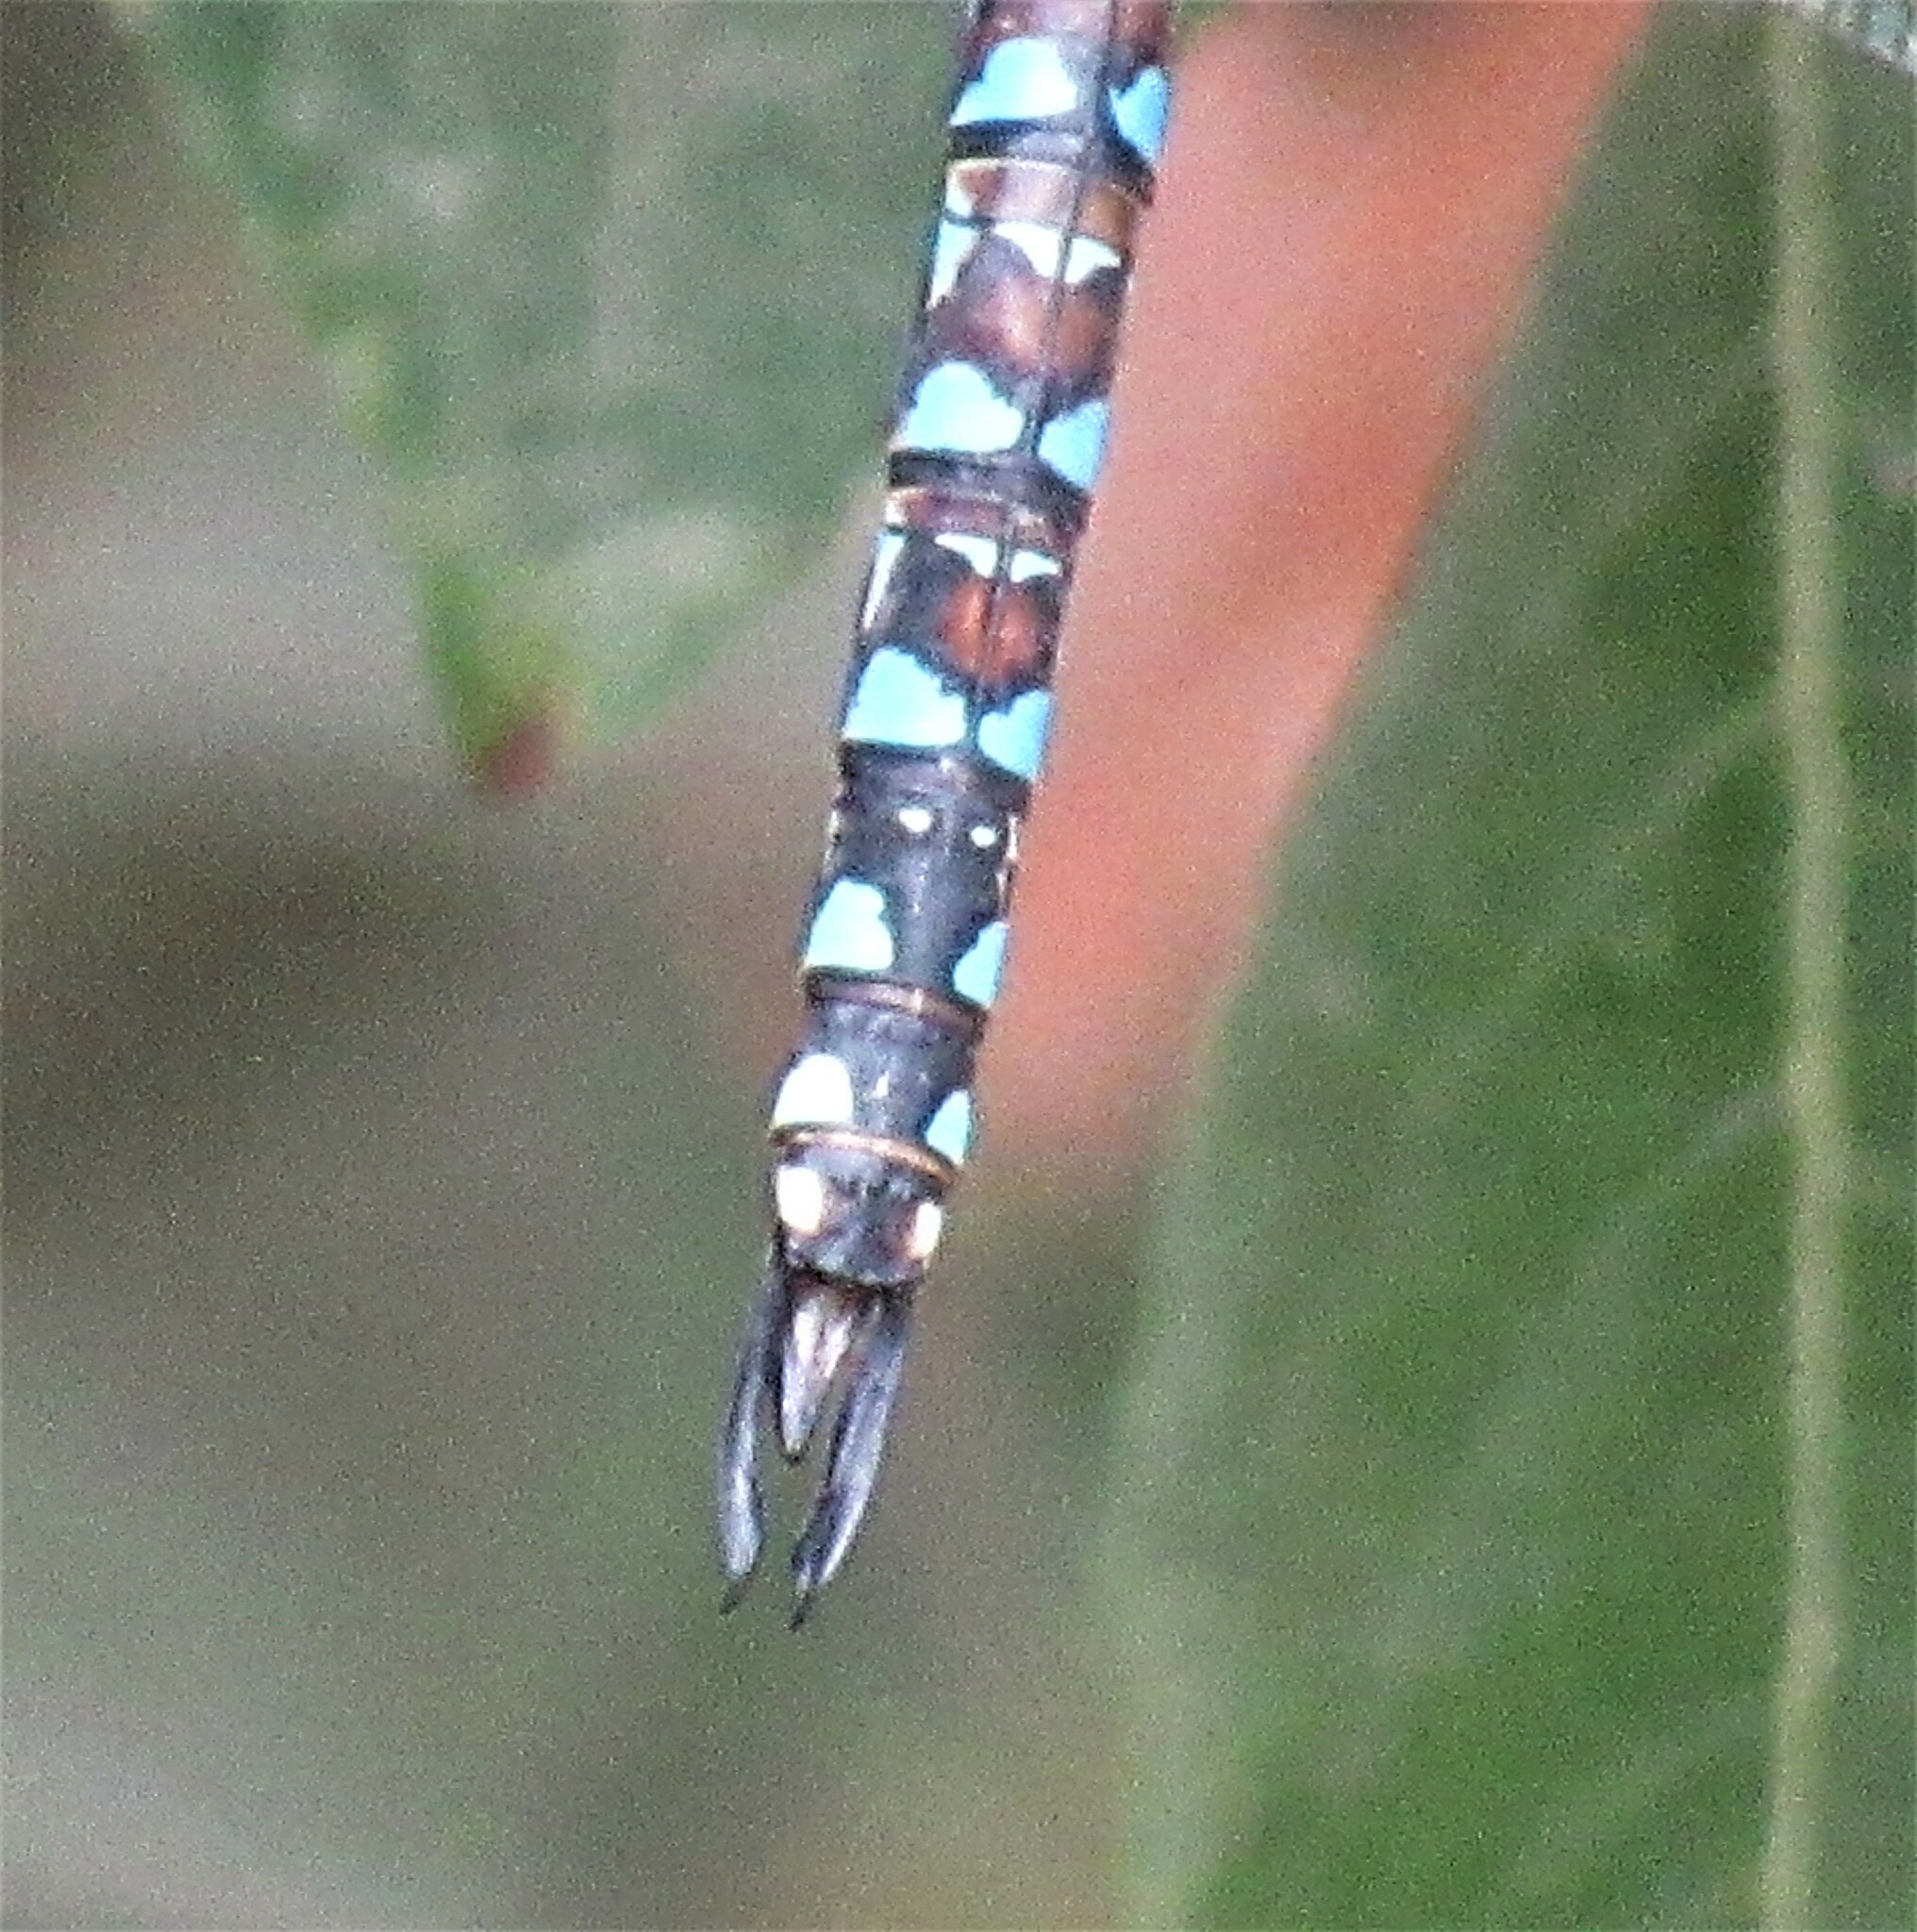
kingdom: Animalia
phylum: Arthropoda
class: Insecta
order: Odonata
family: Aeshnidae
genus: Rhionaeschna
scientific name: Rhionaeschna multicolor
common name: Blue-eyed darner
